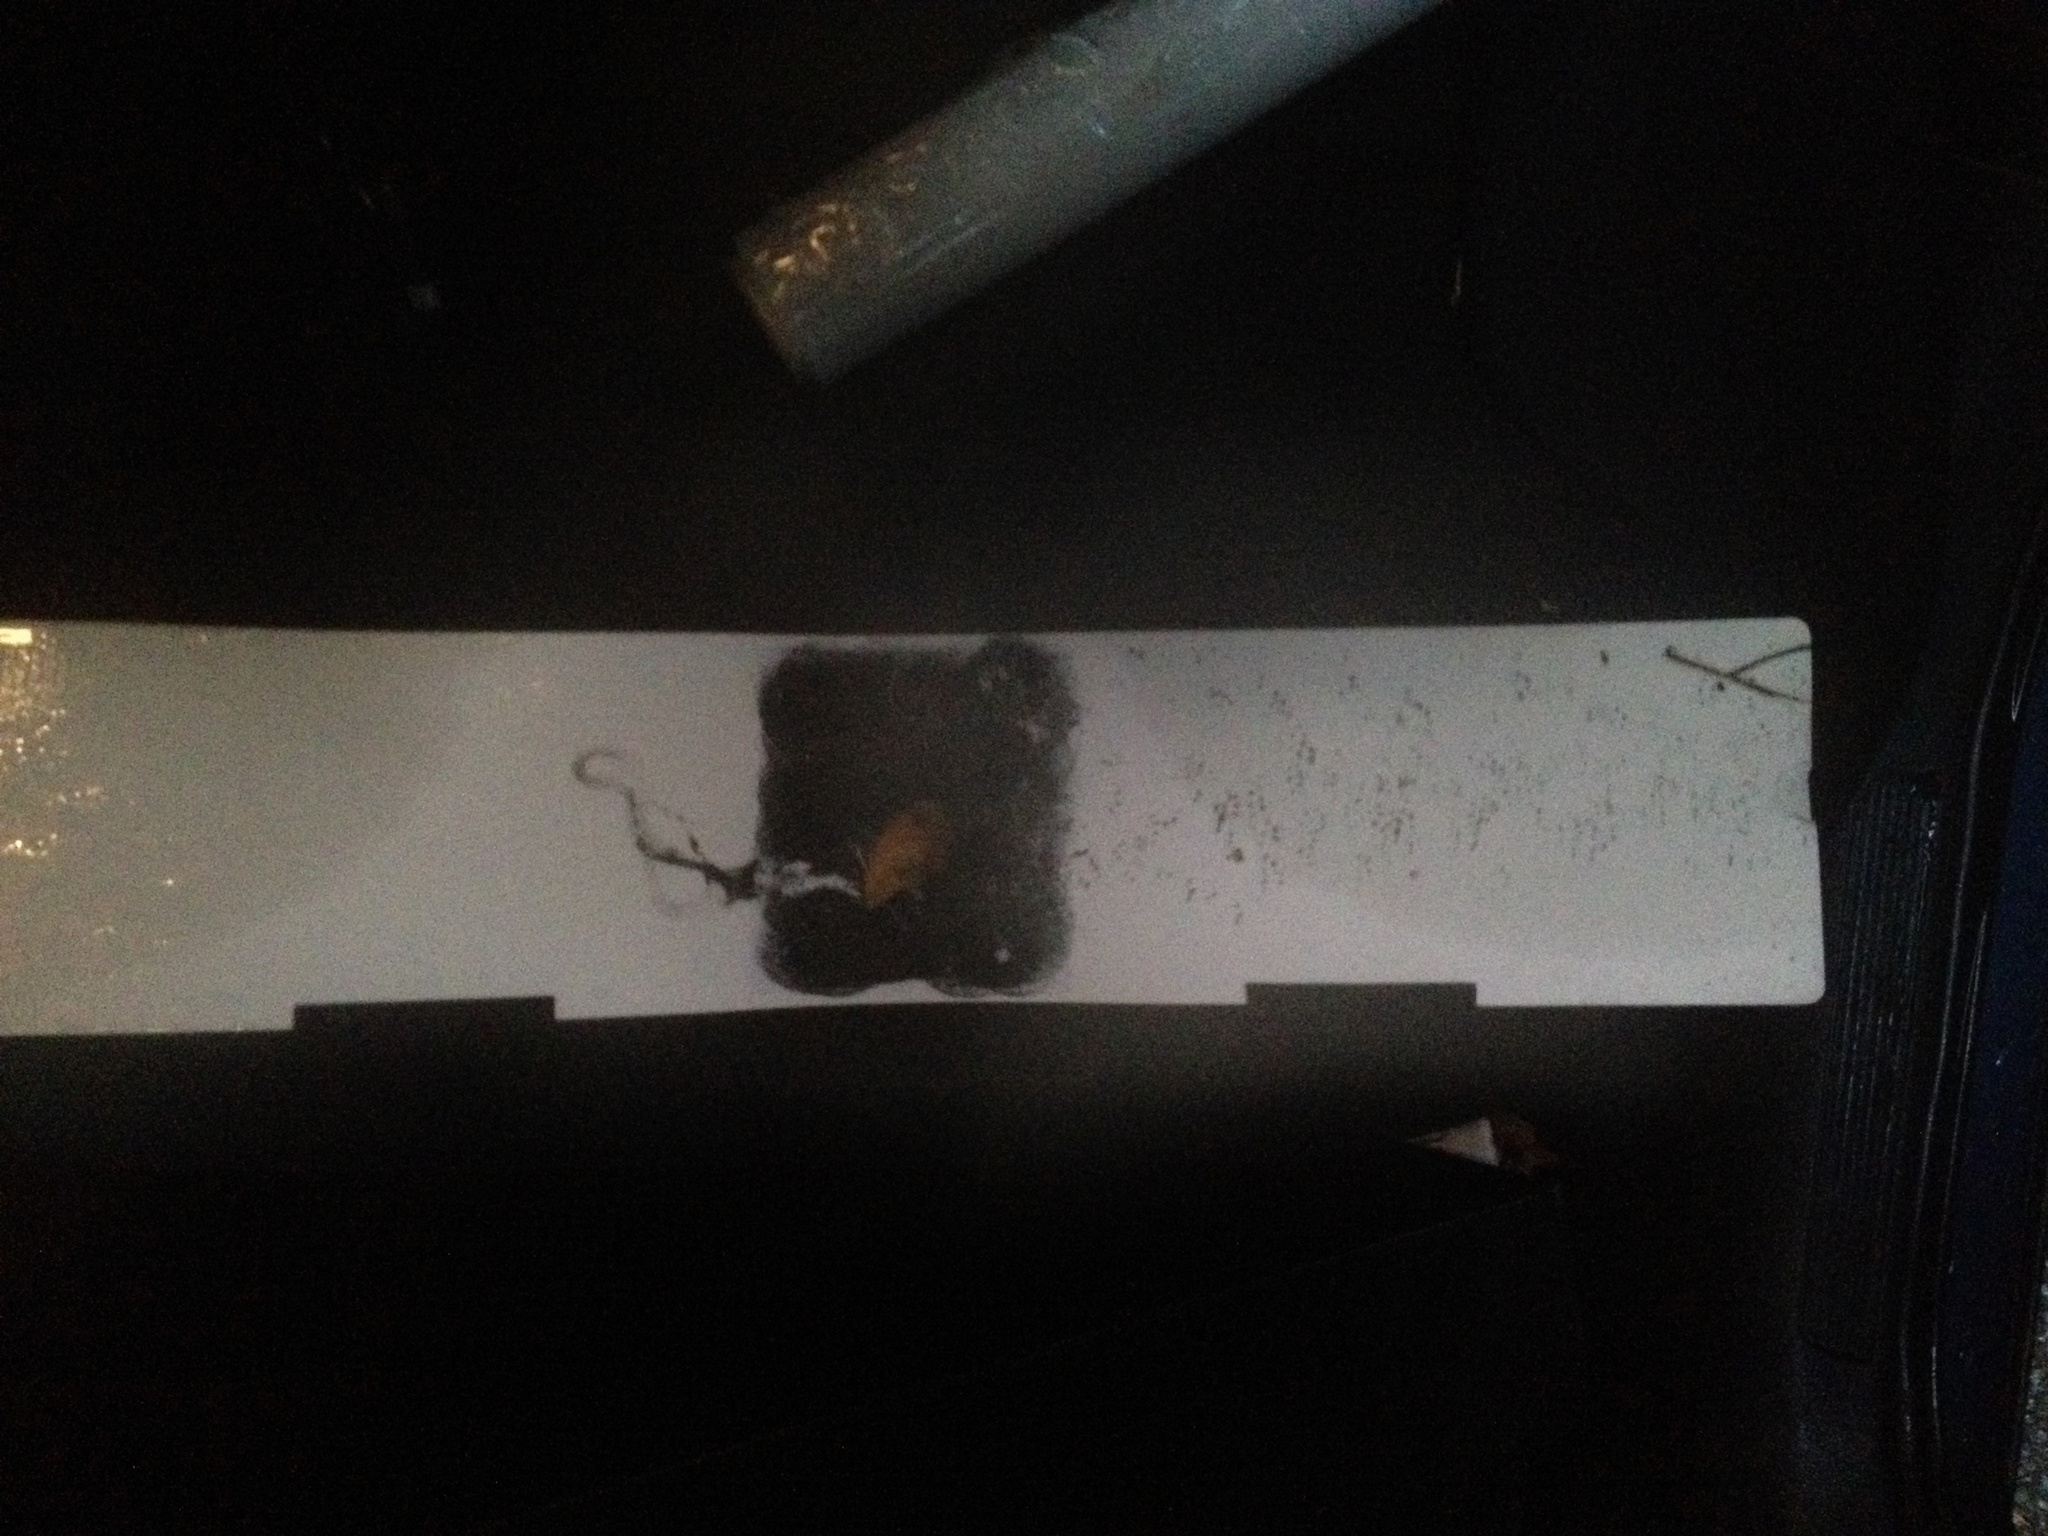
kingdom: Animalia
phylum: Chordata
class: Mammalia
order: Rodentia
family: Muridae
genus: Mus
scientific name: Mus musculus
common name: House mouse
